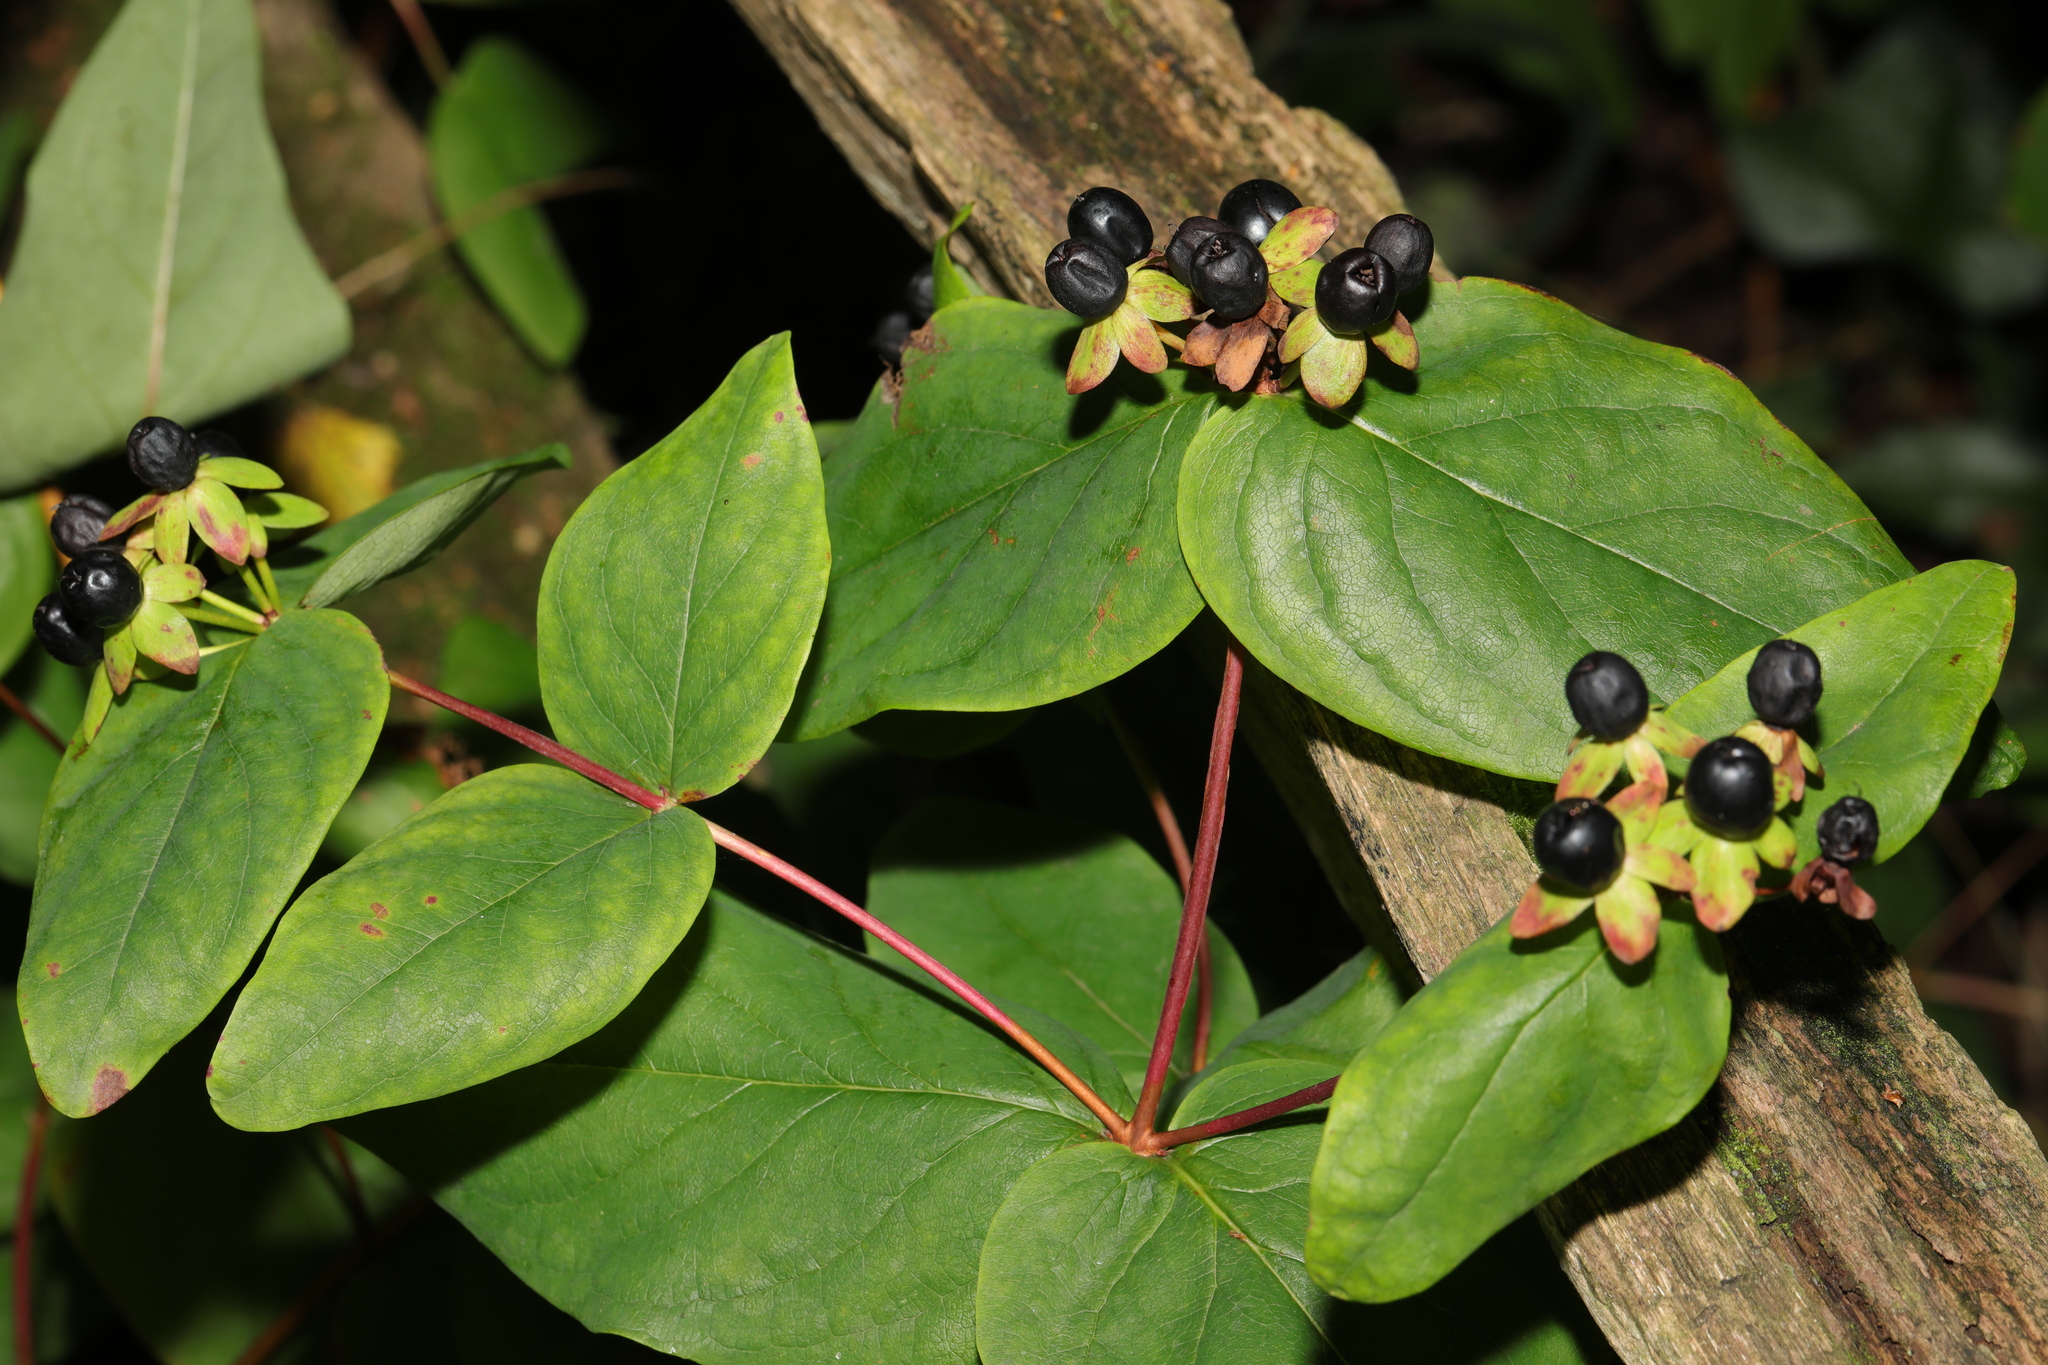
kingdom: Plantae
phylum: Tracheophyta
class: Magnoliopsida
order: Malpighiales
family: Hypericaceae
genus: Hypericum
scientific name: Hypericum androsaemum
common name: Sweet-amber
